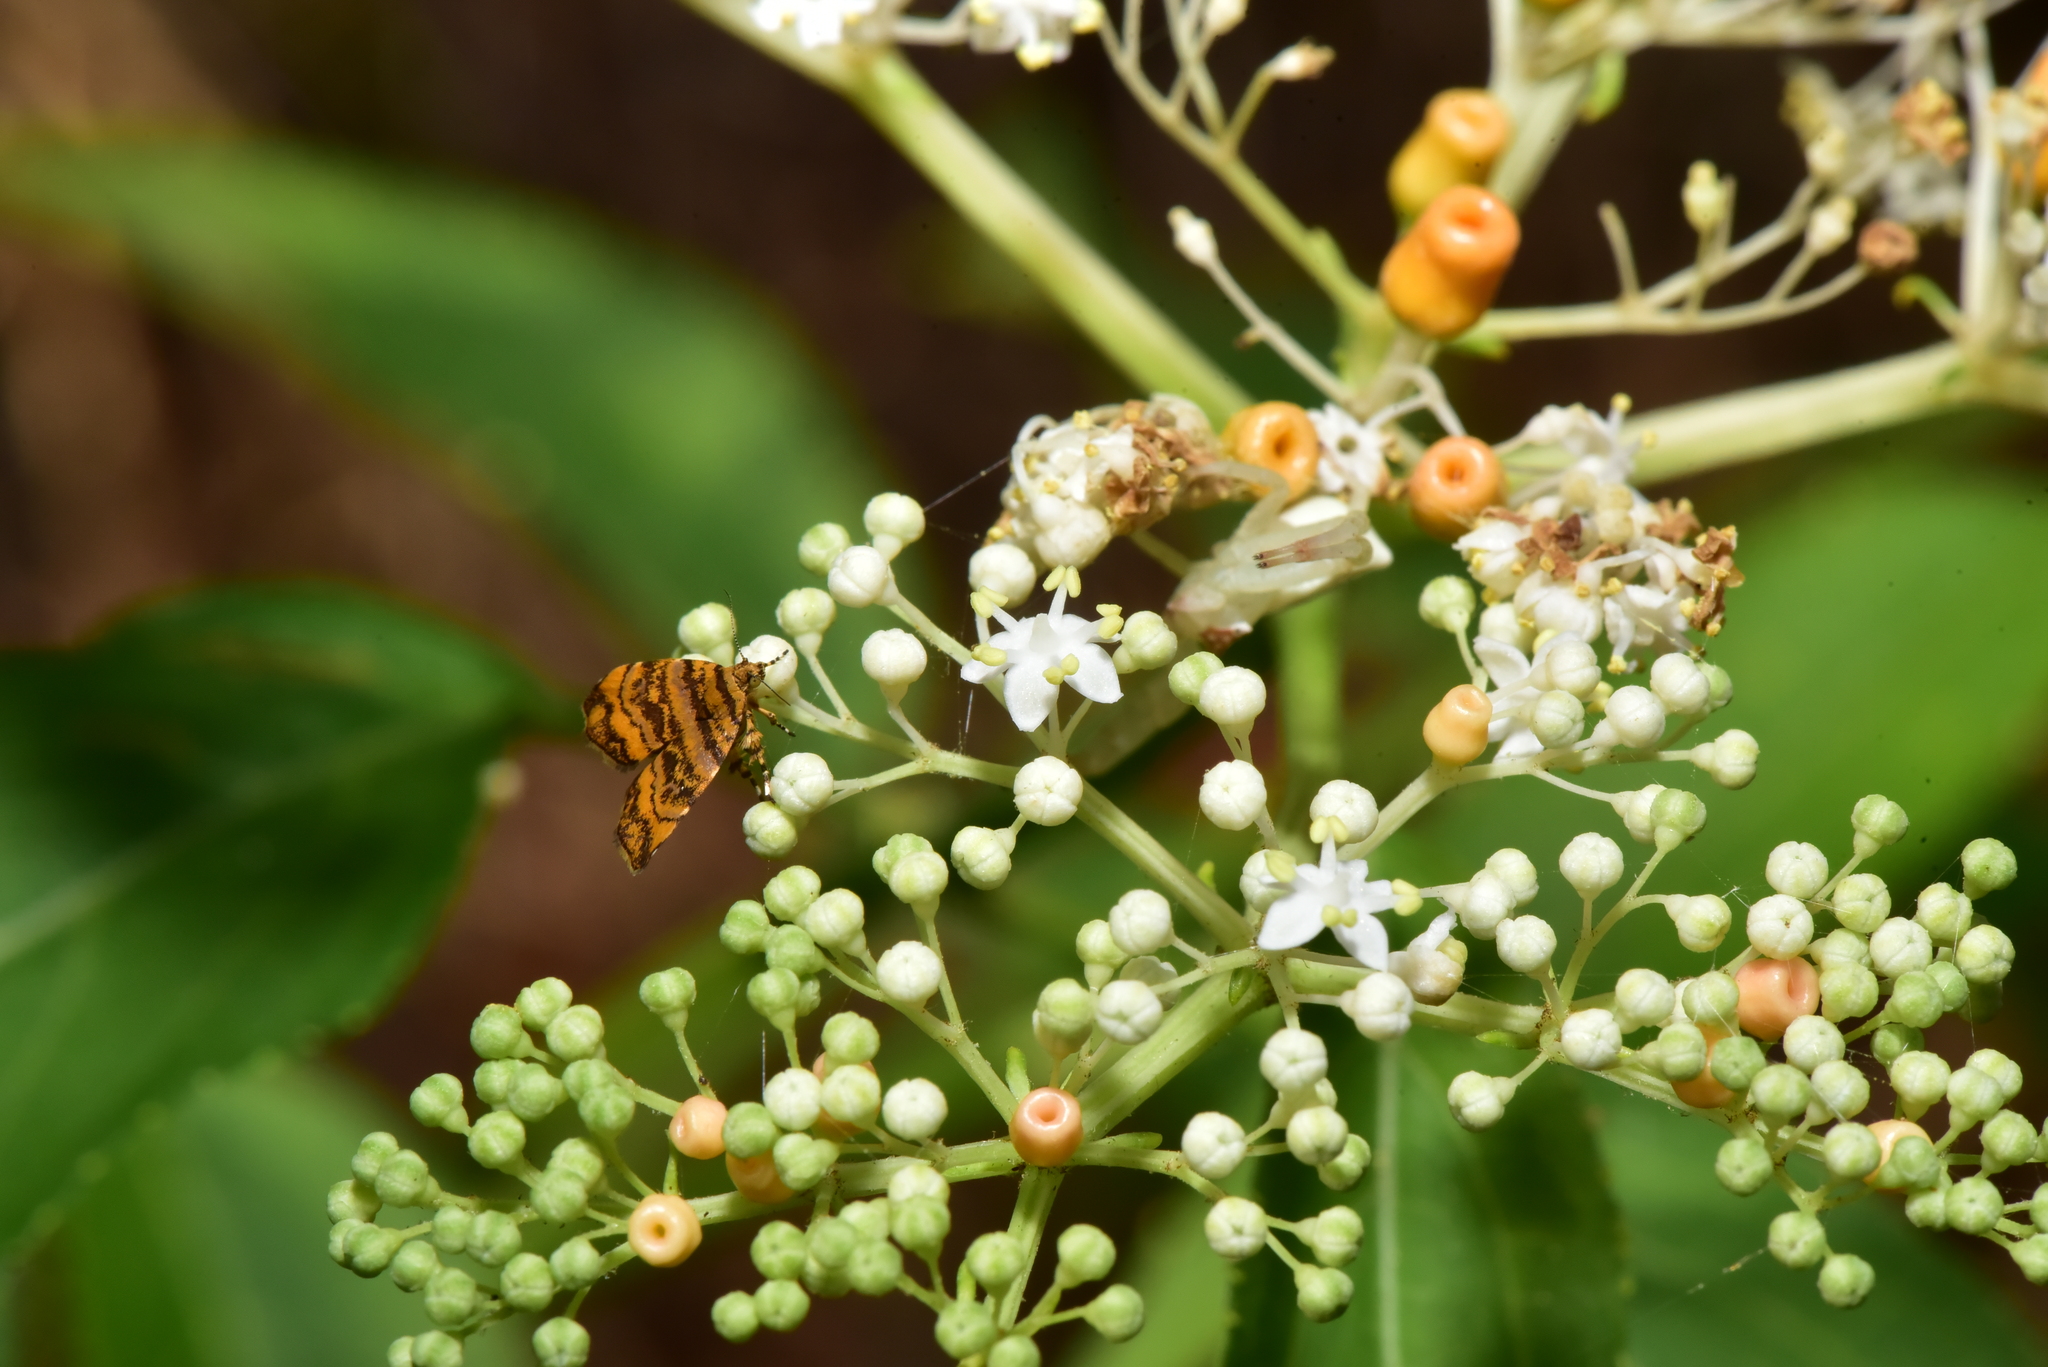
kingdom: Plantae
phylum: Tracheophyta
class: Magnoliopsida
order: Dipsacales
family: Viburnaceae
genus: Sambucus
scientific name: Sambucus javanica
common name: Chinese elder
